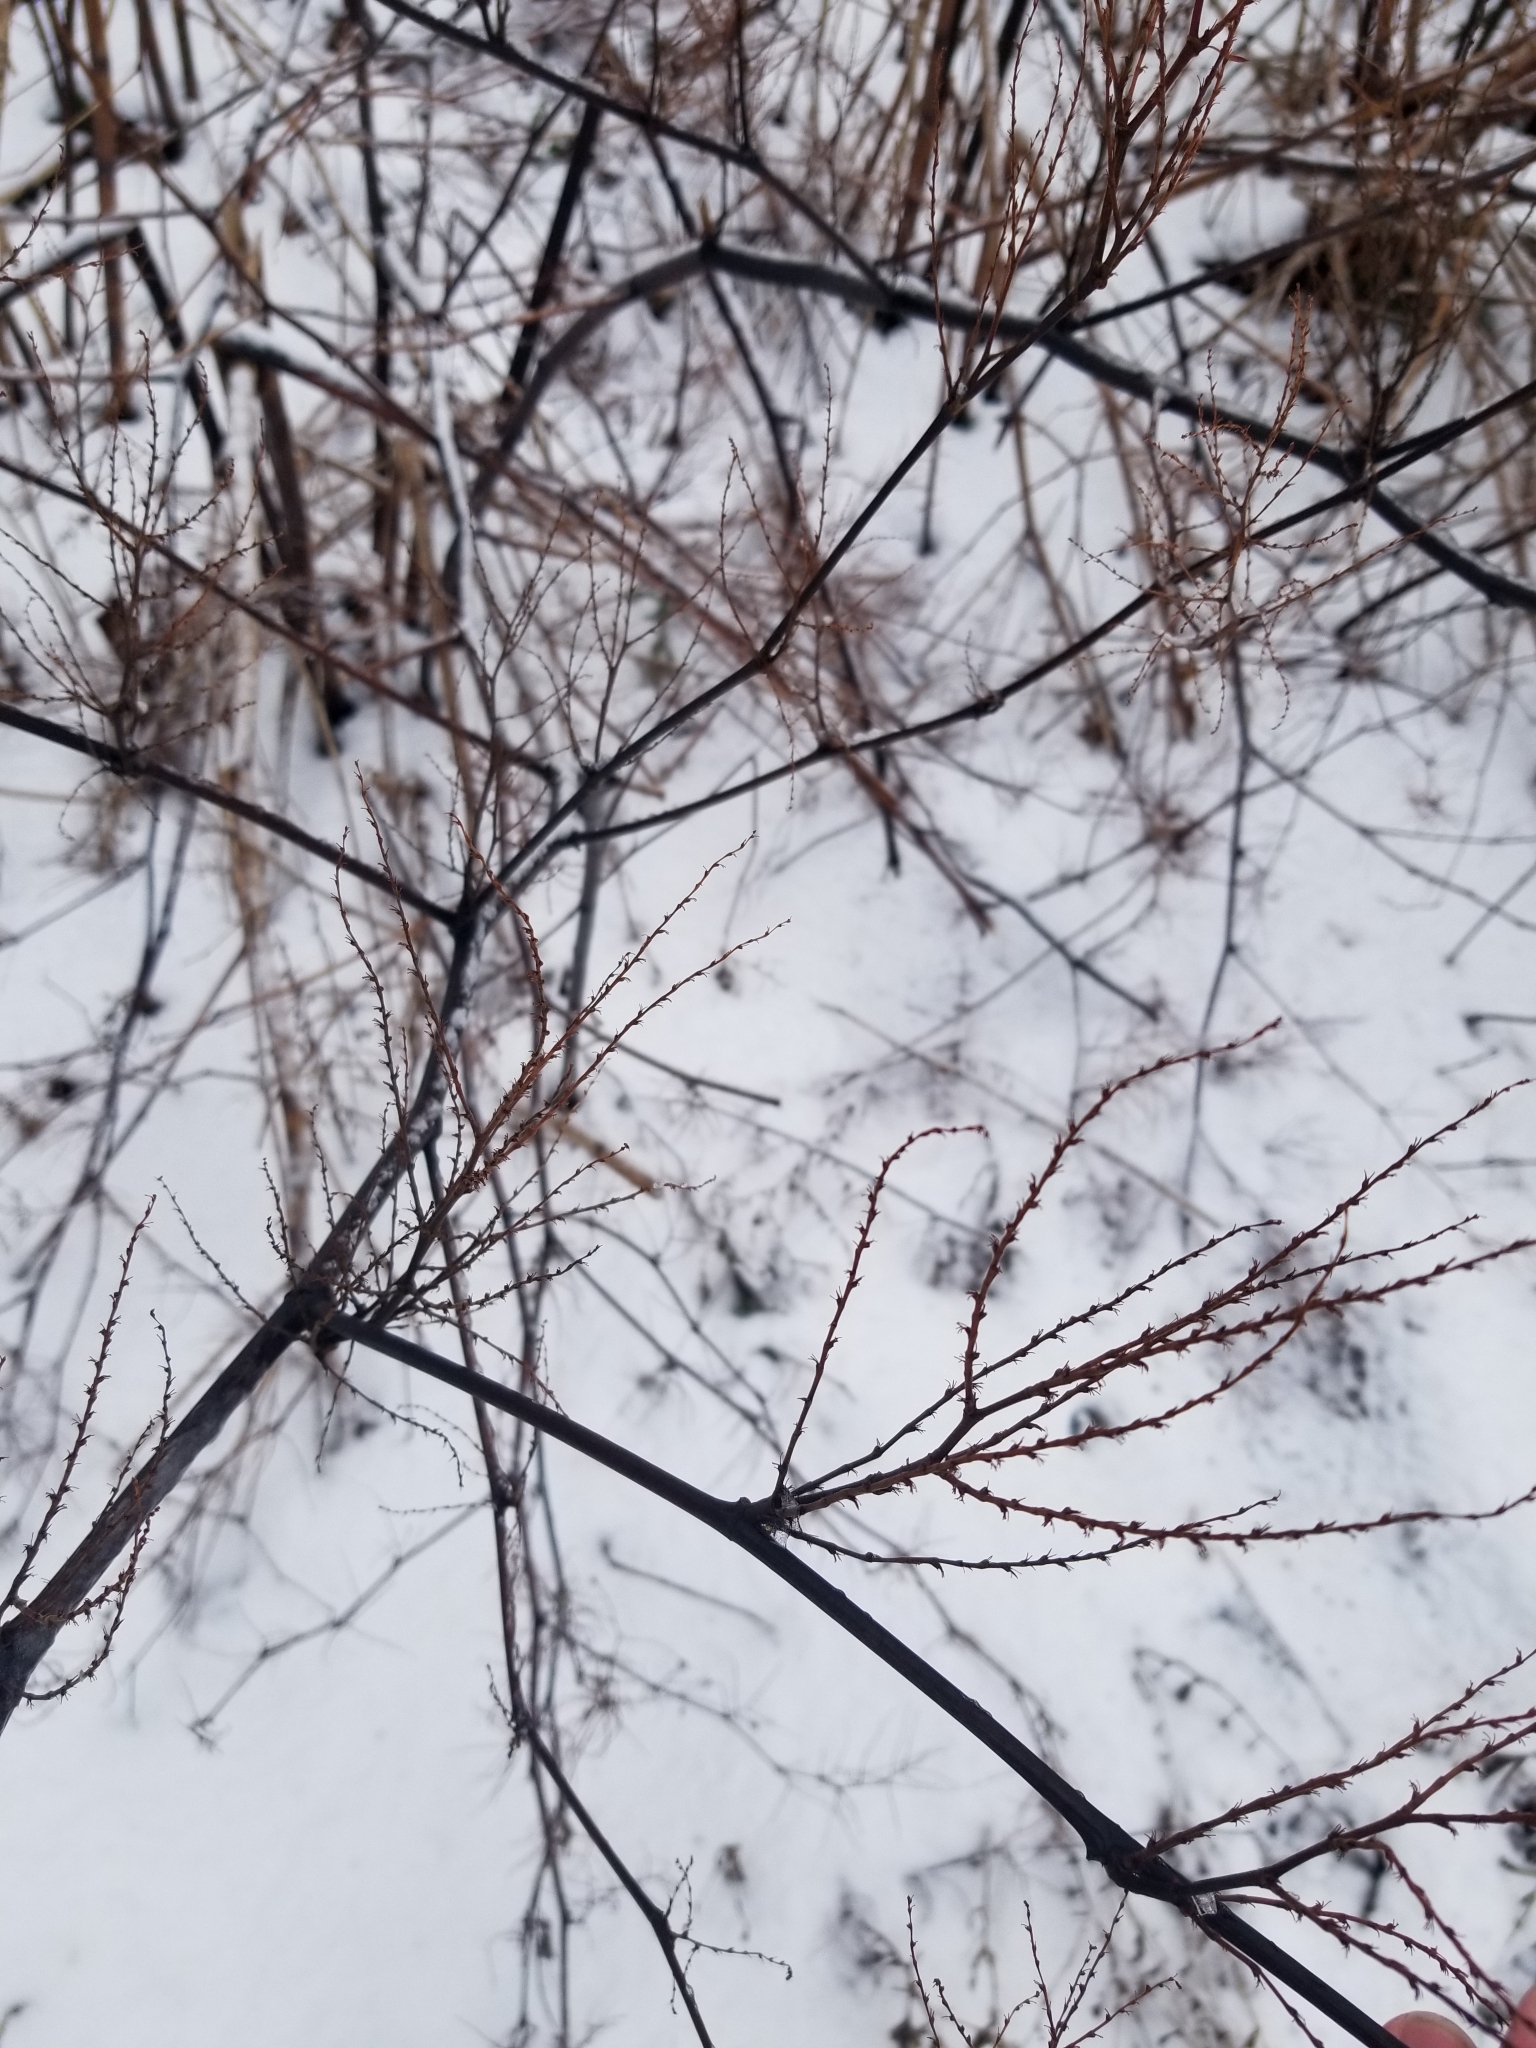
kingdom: Plantae
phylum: Tracheophyta
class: Magnoliopsida
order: Caryophyllales
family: Polygonaceae
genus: Reynoutria
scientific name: Reynoutria japonica
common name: Japanese knotweed
